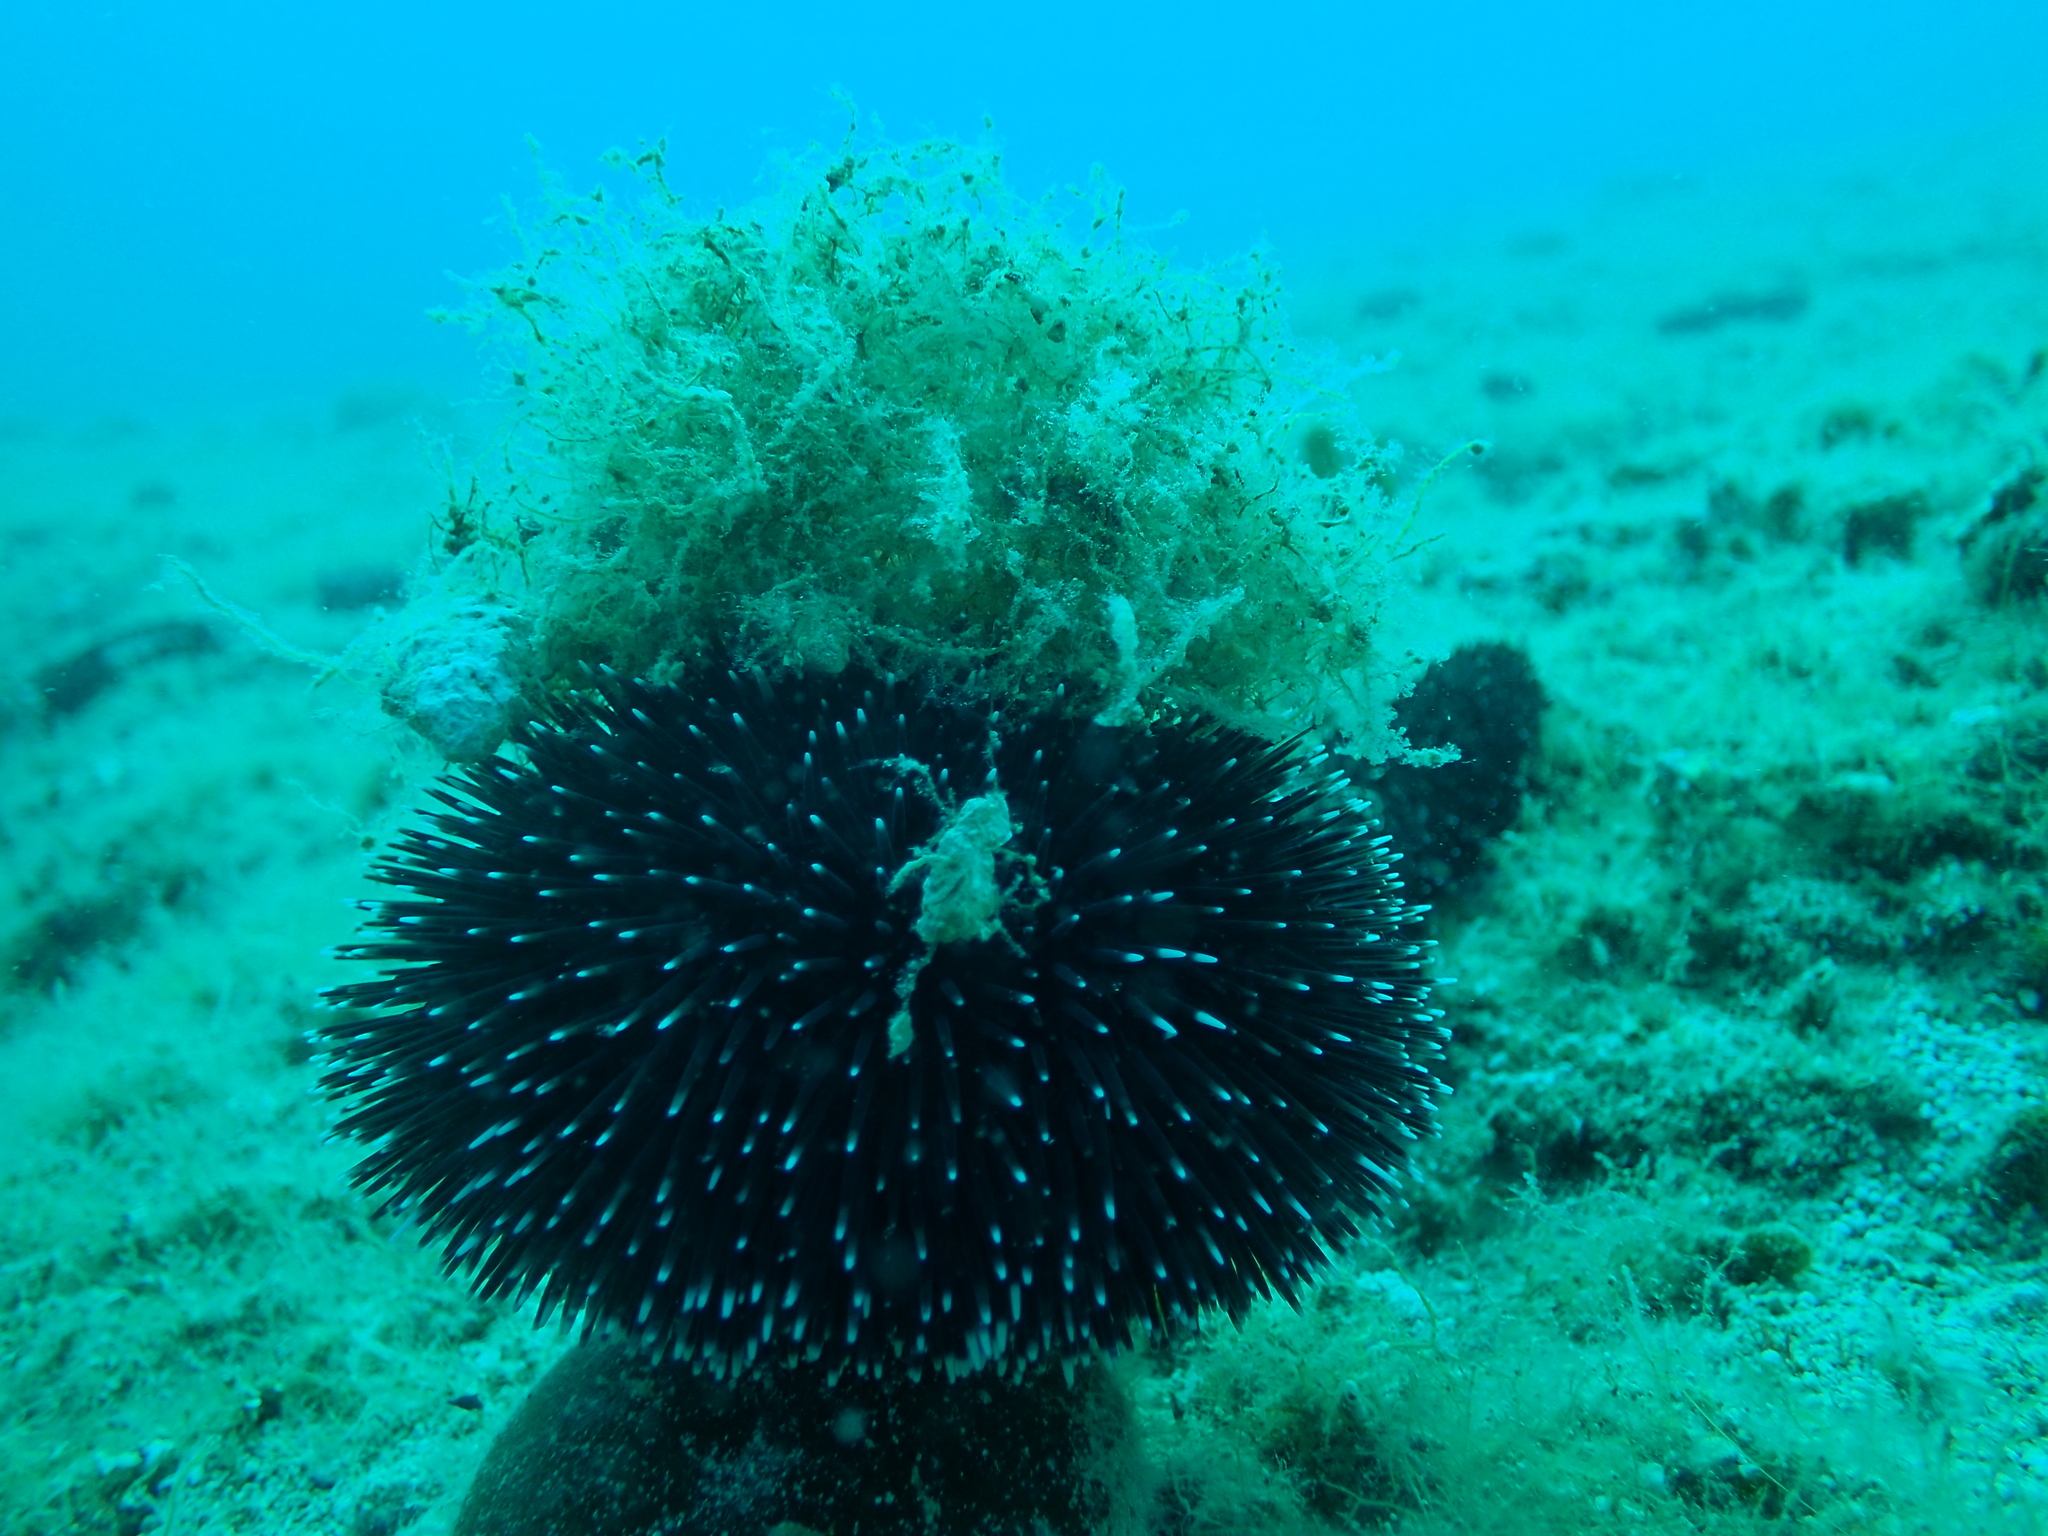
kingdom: Plantae
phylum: Chlorophyta
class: Ulvophyceae
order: Bryopsidales
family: Codiaceae
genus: Codium
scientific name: Codium bursa
